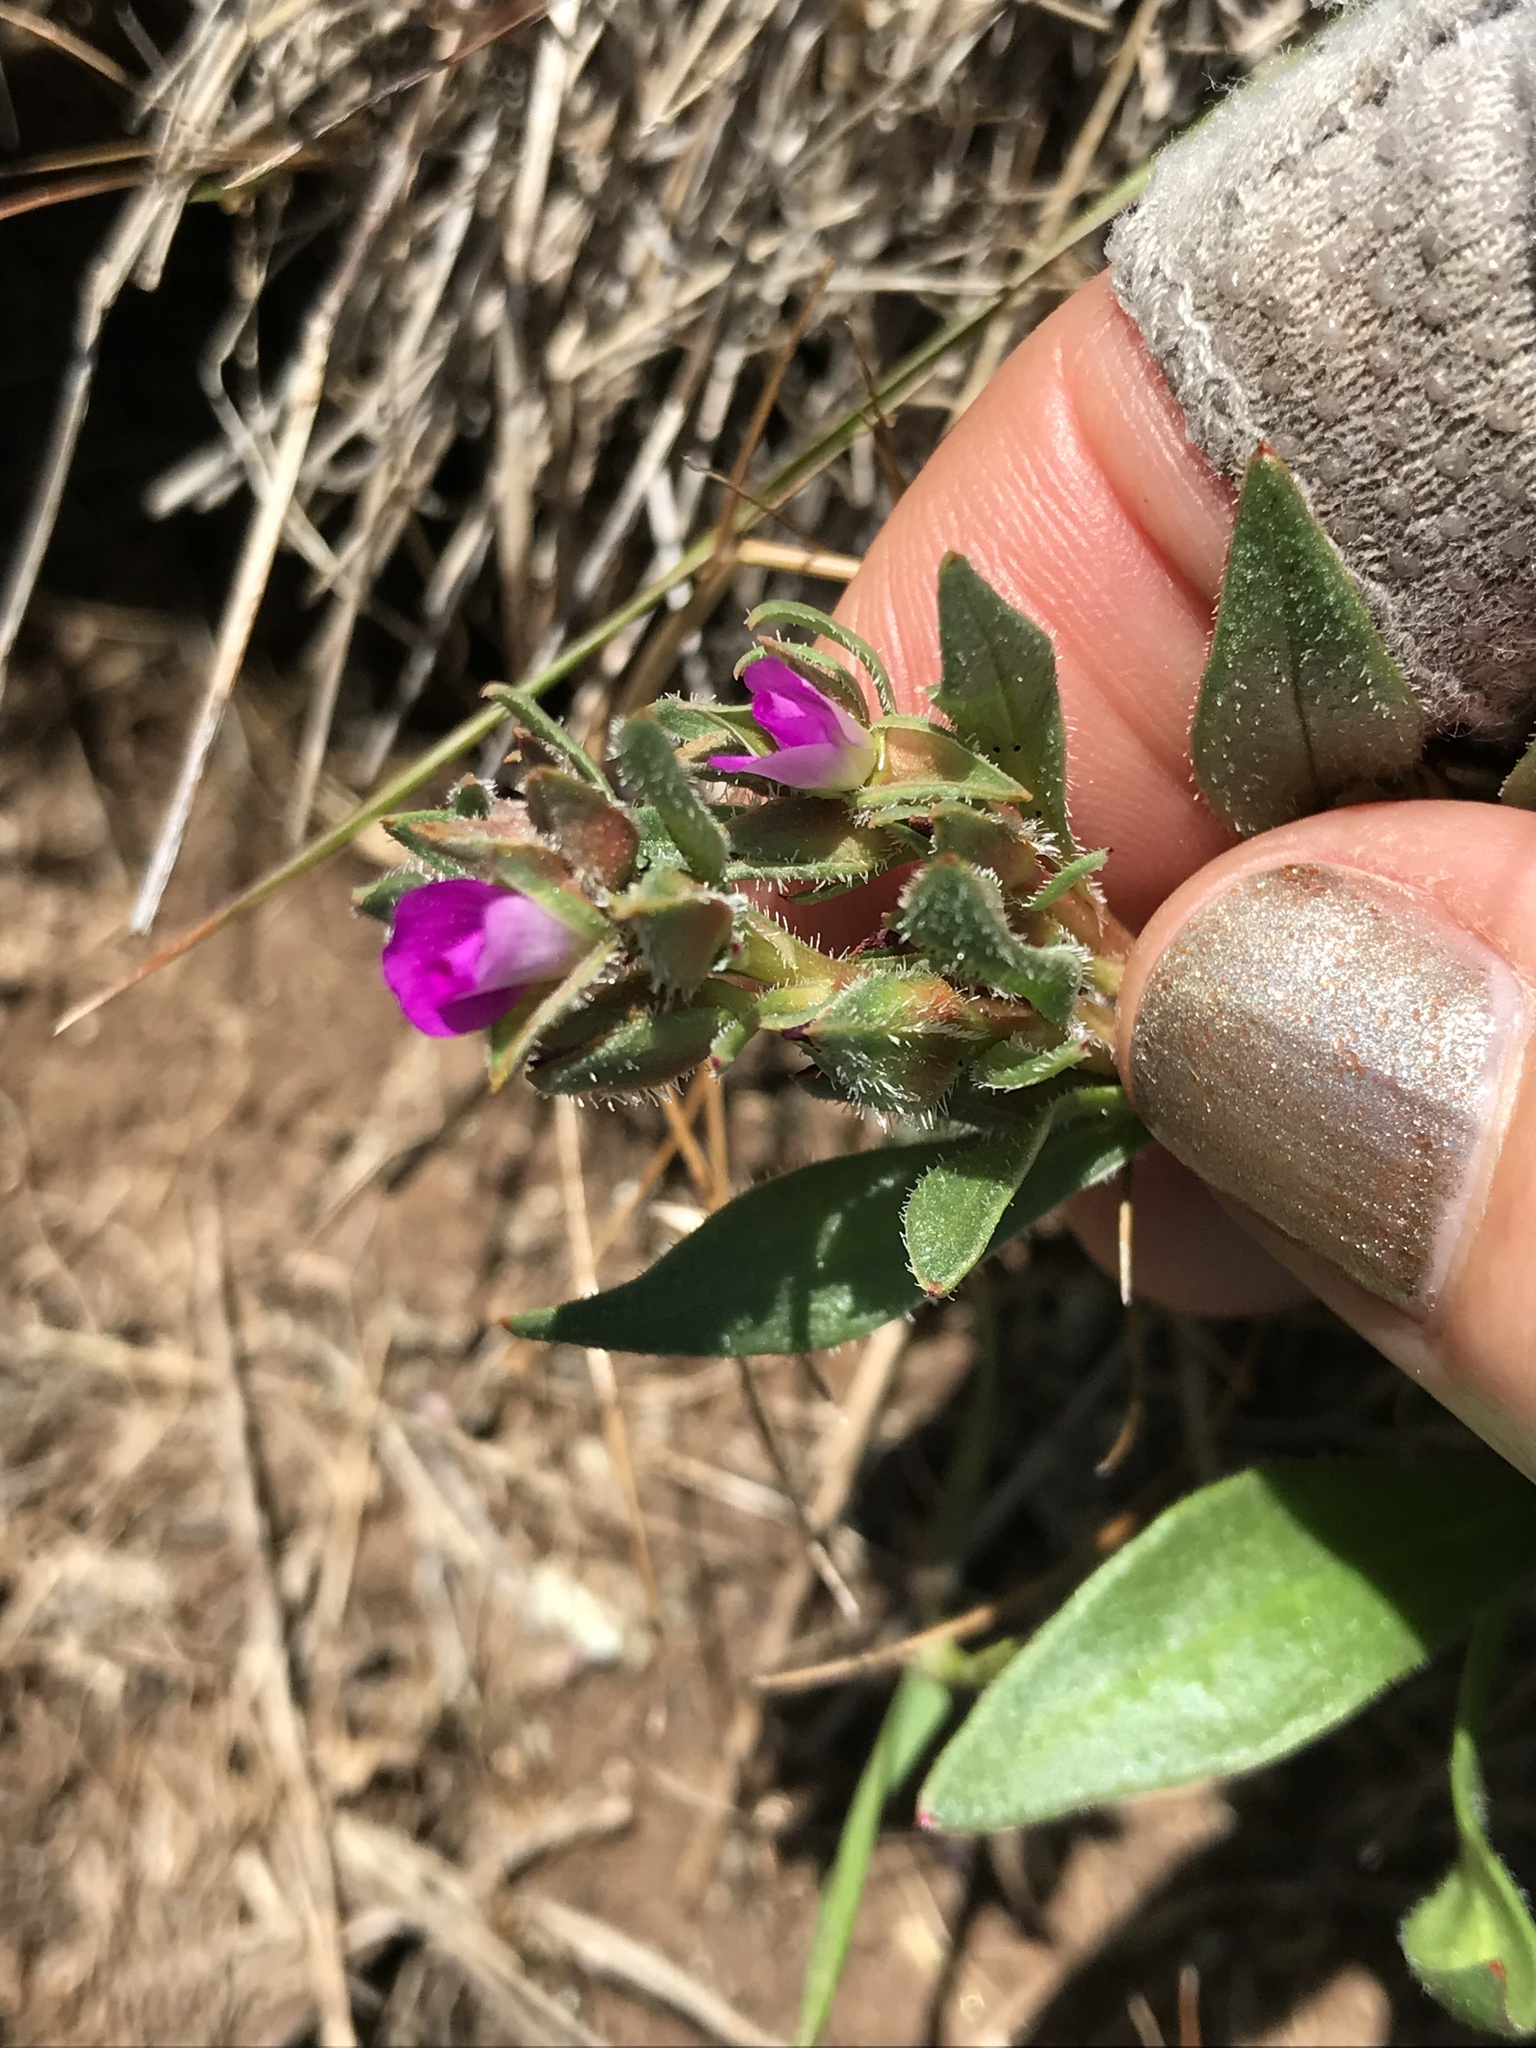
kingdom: Plantae
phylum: Tracheophyta
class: Magnoliopsida
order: Caryophyllales
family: Montiaceae
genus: Calandrinia
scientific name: Calandrinia menziesii
